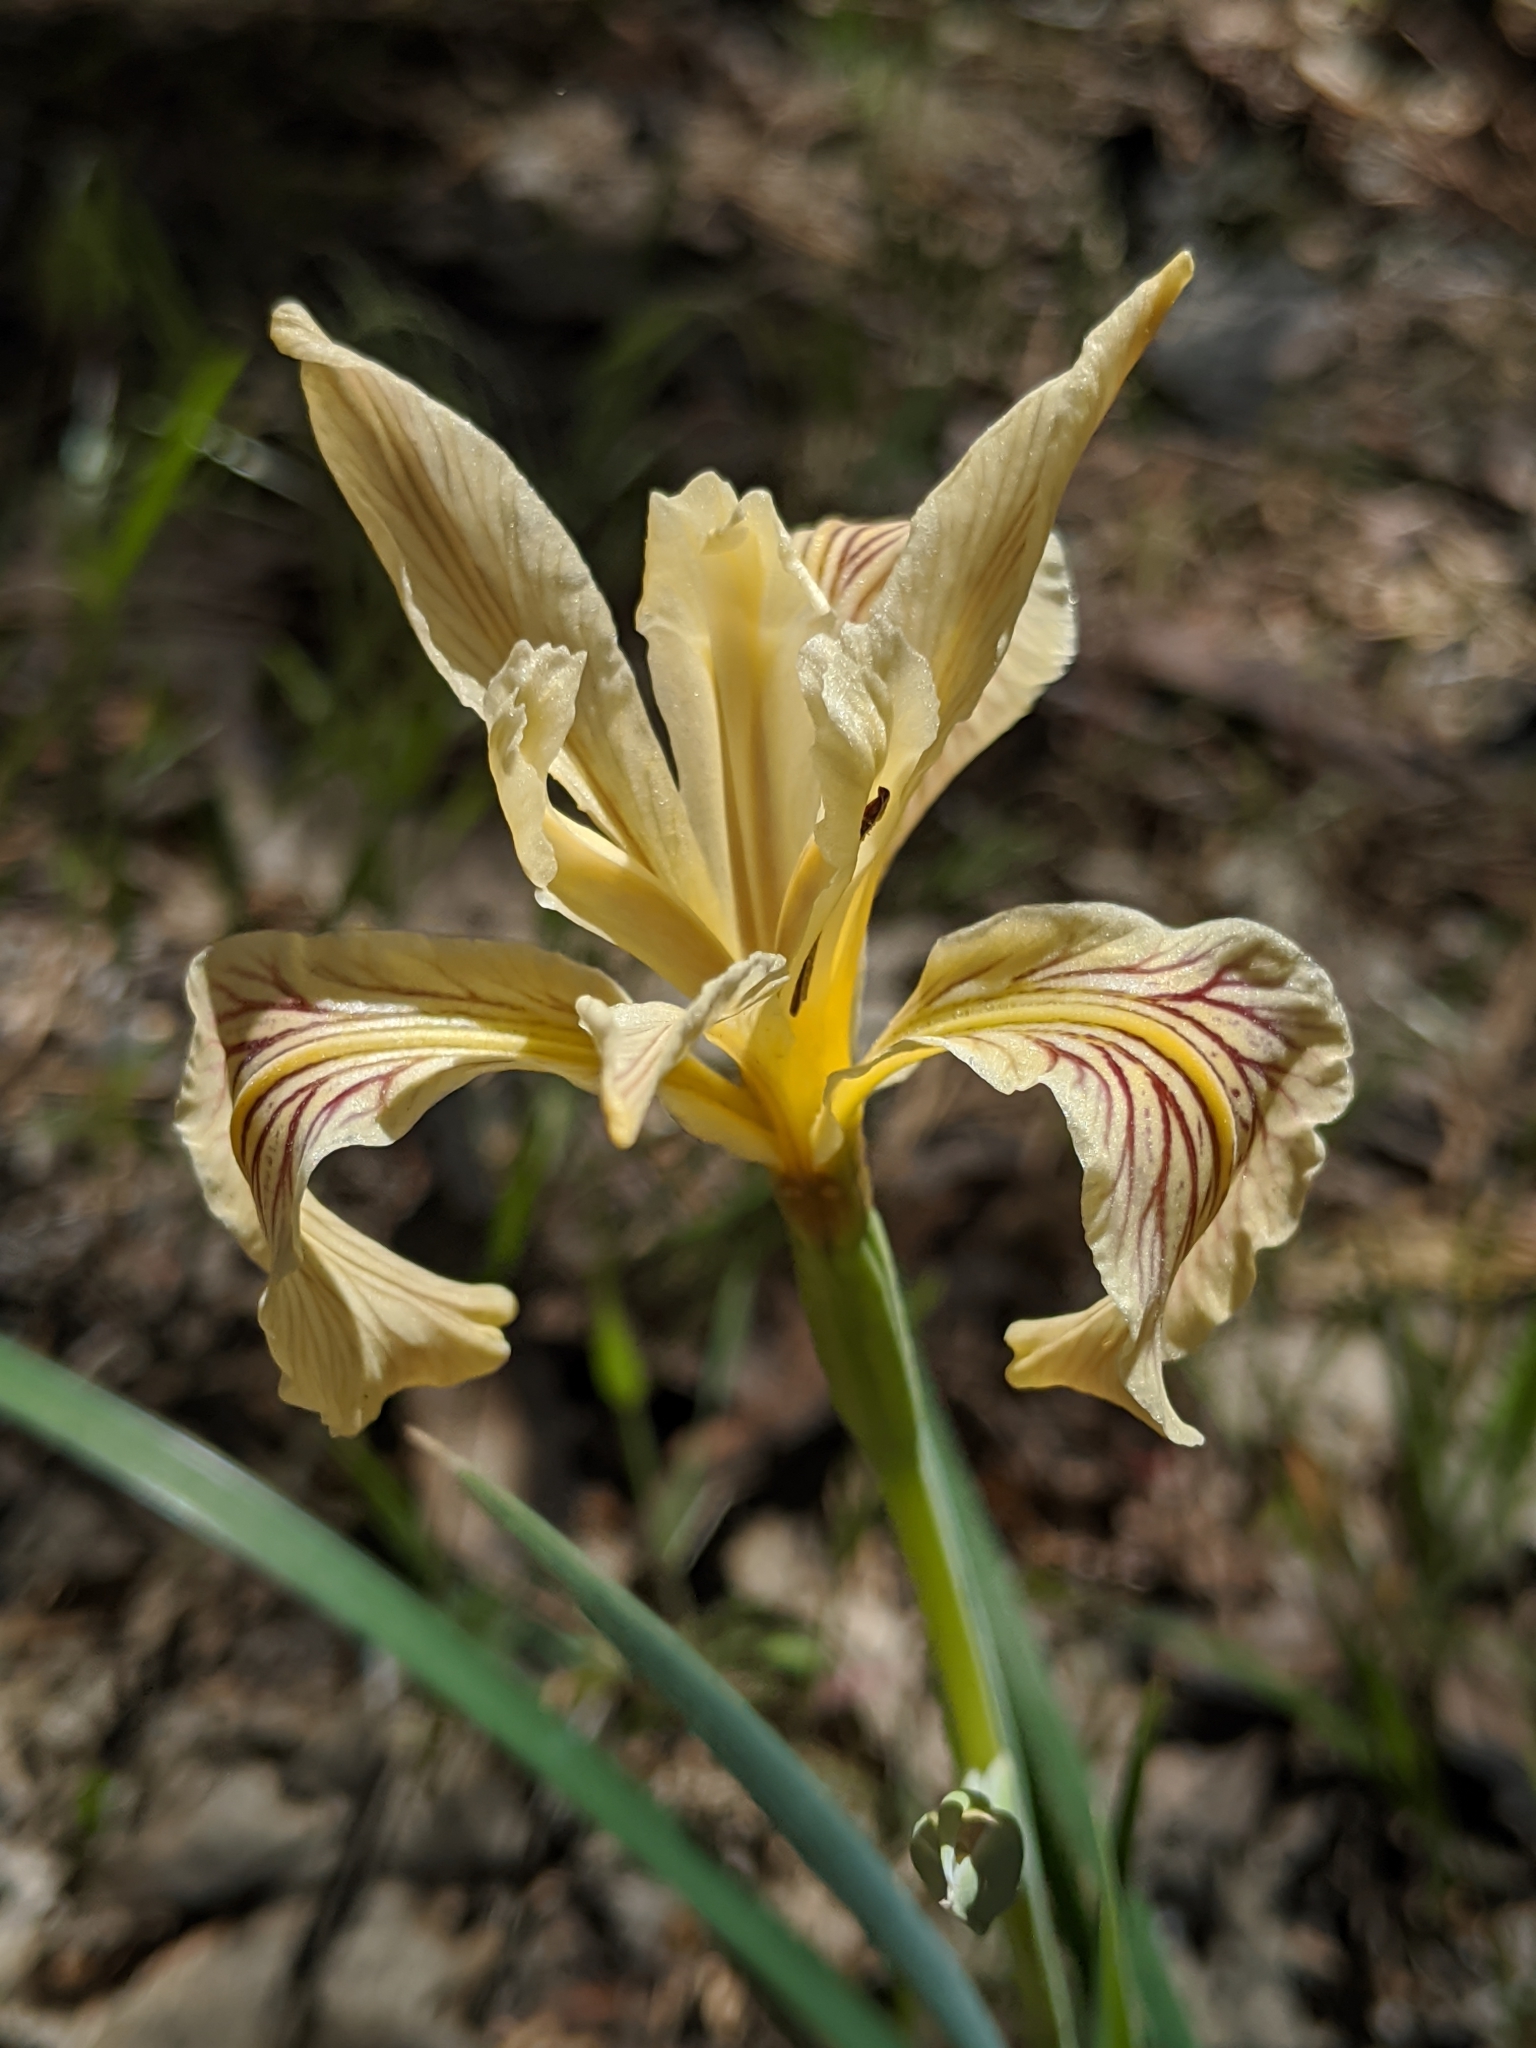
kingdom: Plantae
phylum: Tracheophyta
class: Liliopsida
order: Asparagales
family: Iridaceae
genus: Iris
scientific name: Iris hartwegii
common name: Sierra iris
